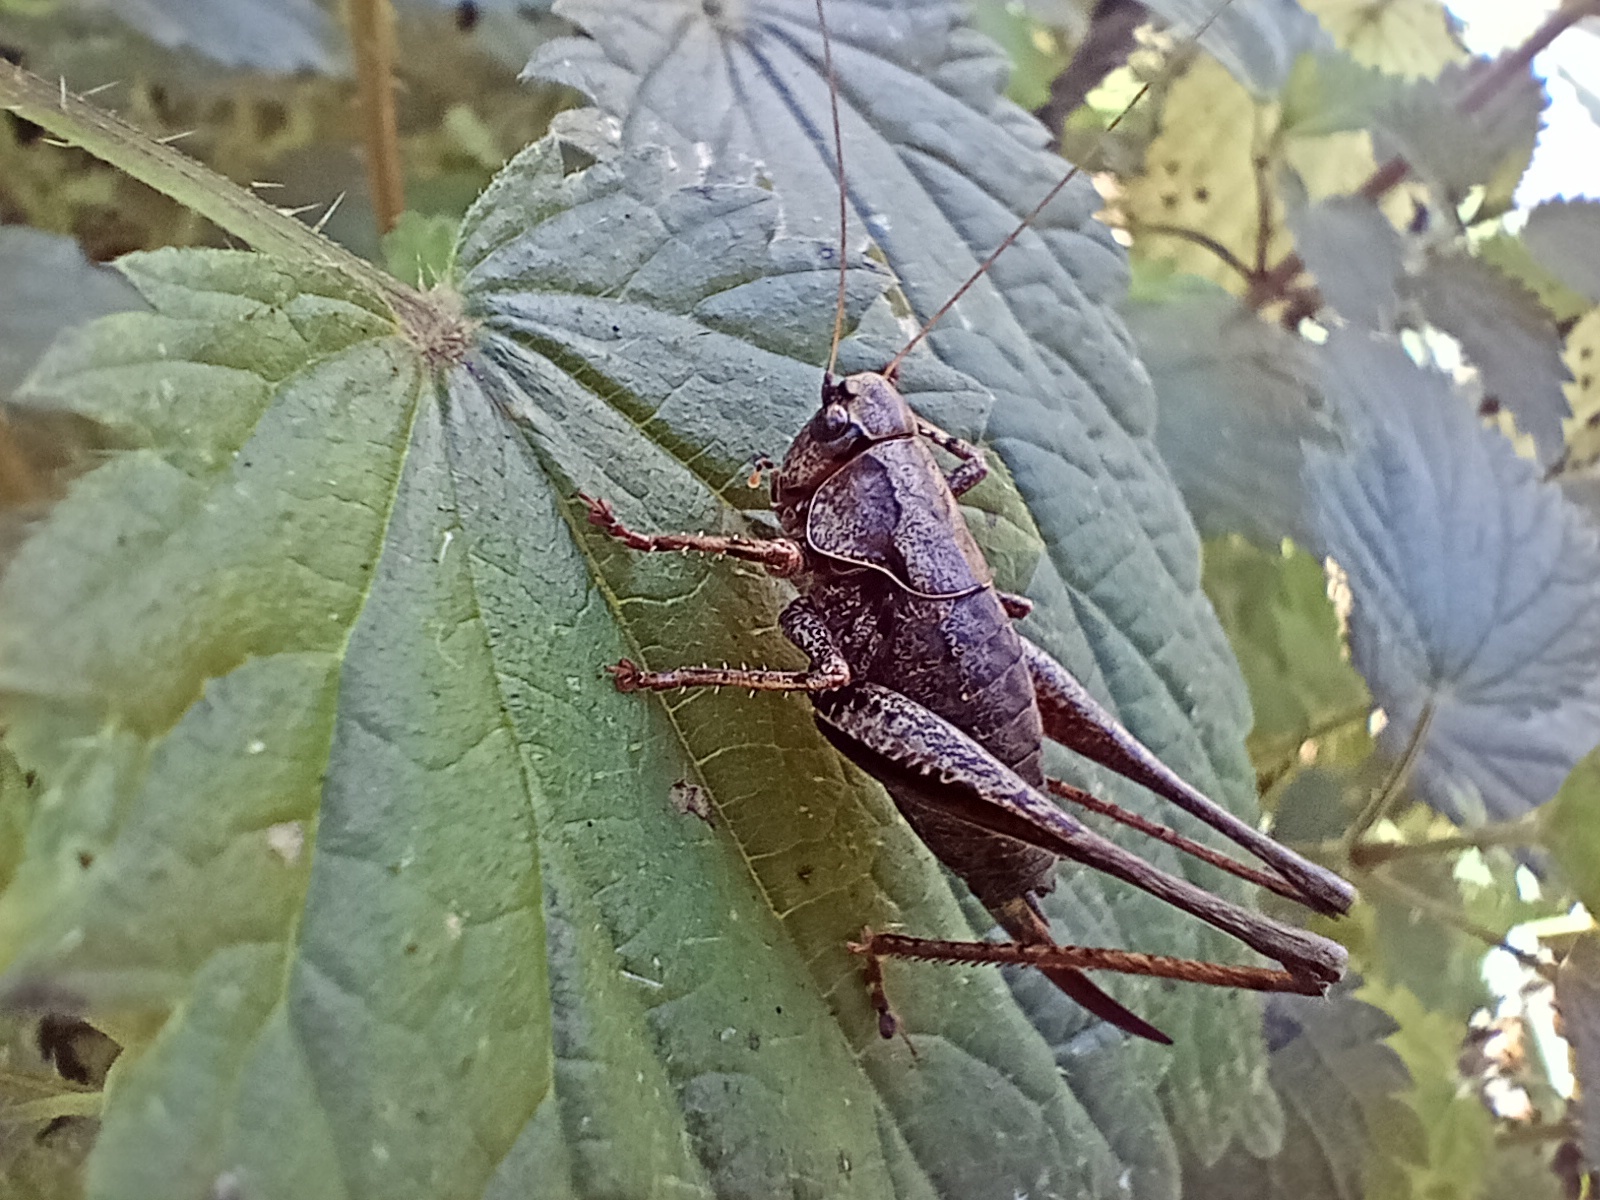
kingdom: Animalia
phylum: Arthropoda
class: Insecta
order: Orthoptera
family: Tettigoniidae
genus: Pholidoptera
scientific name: Pholidoptera griseoaptera
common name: Dark bush-cricket
